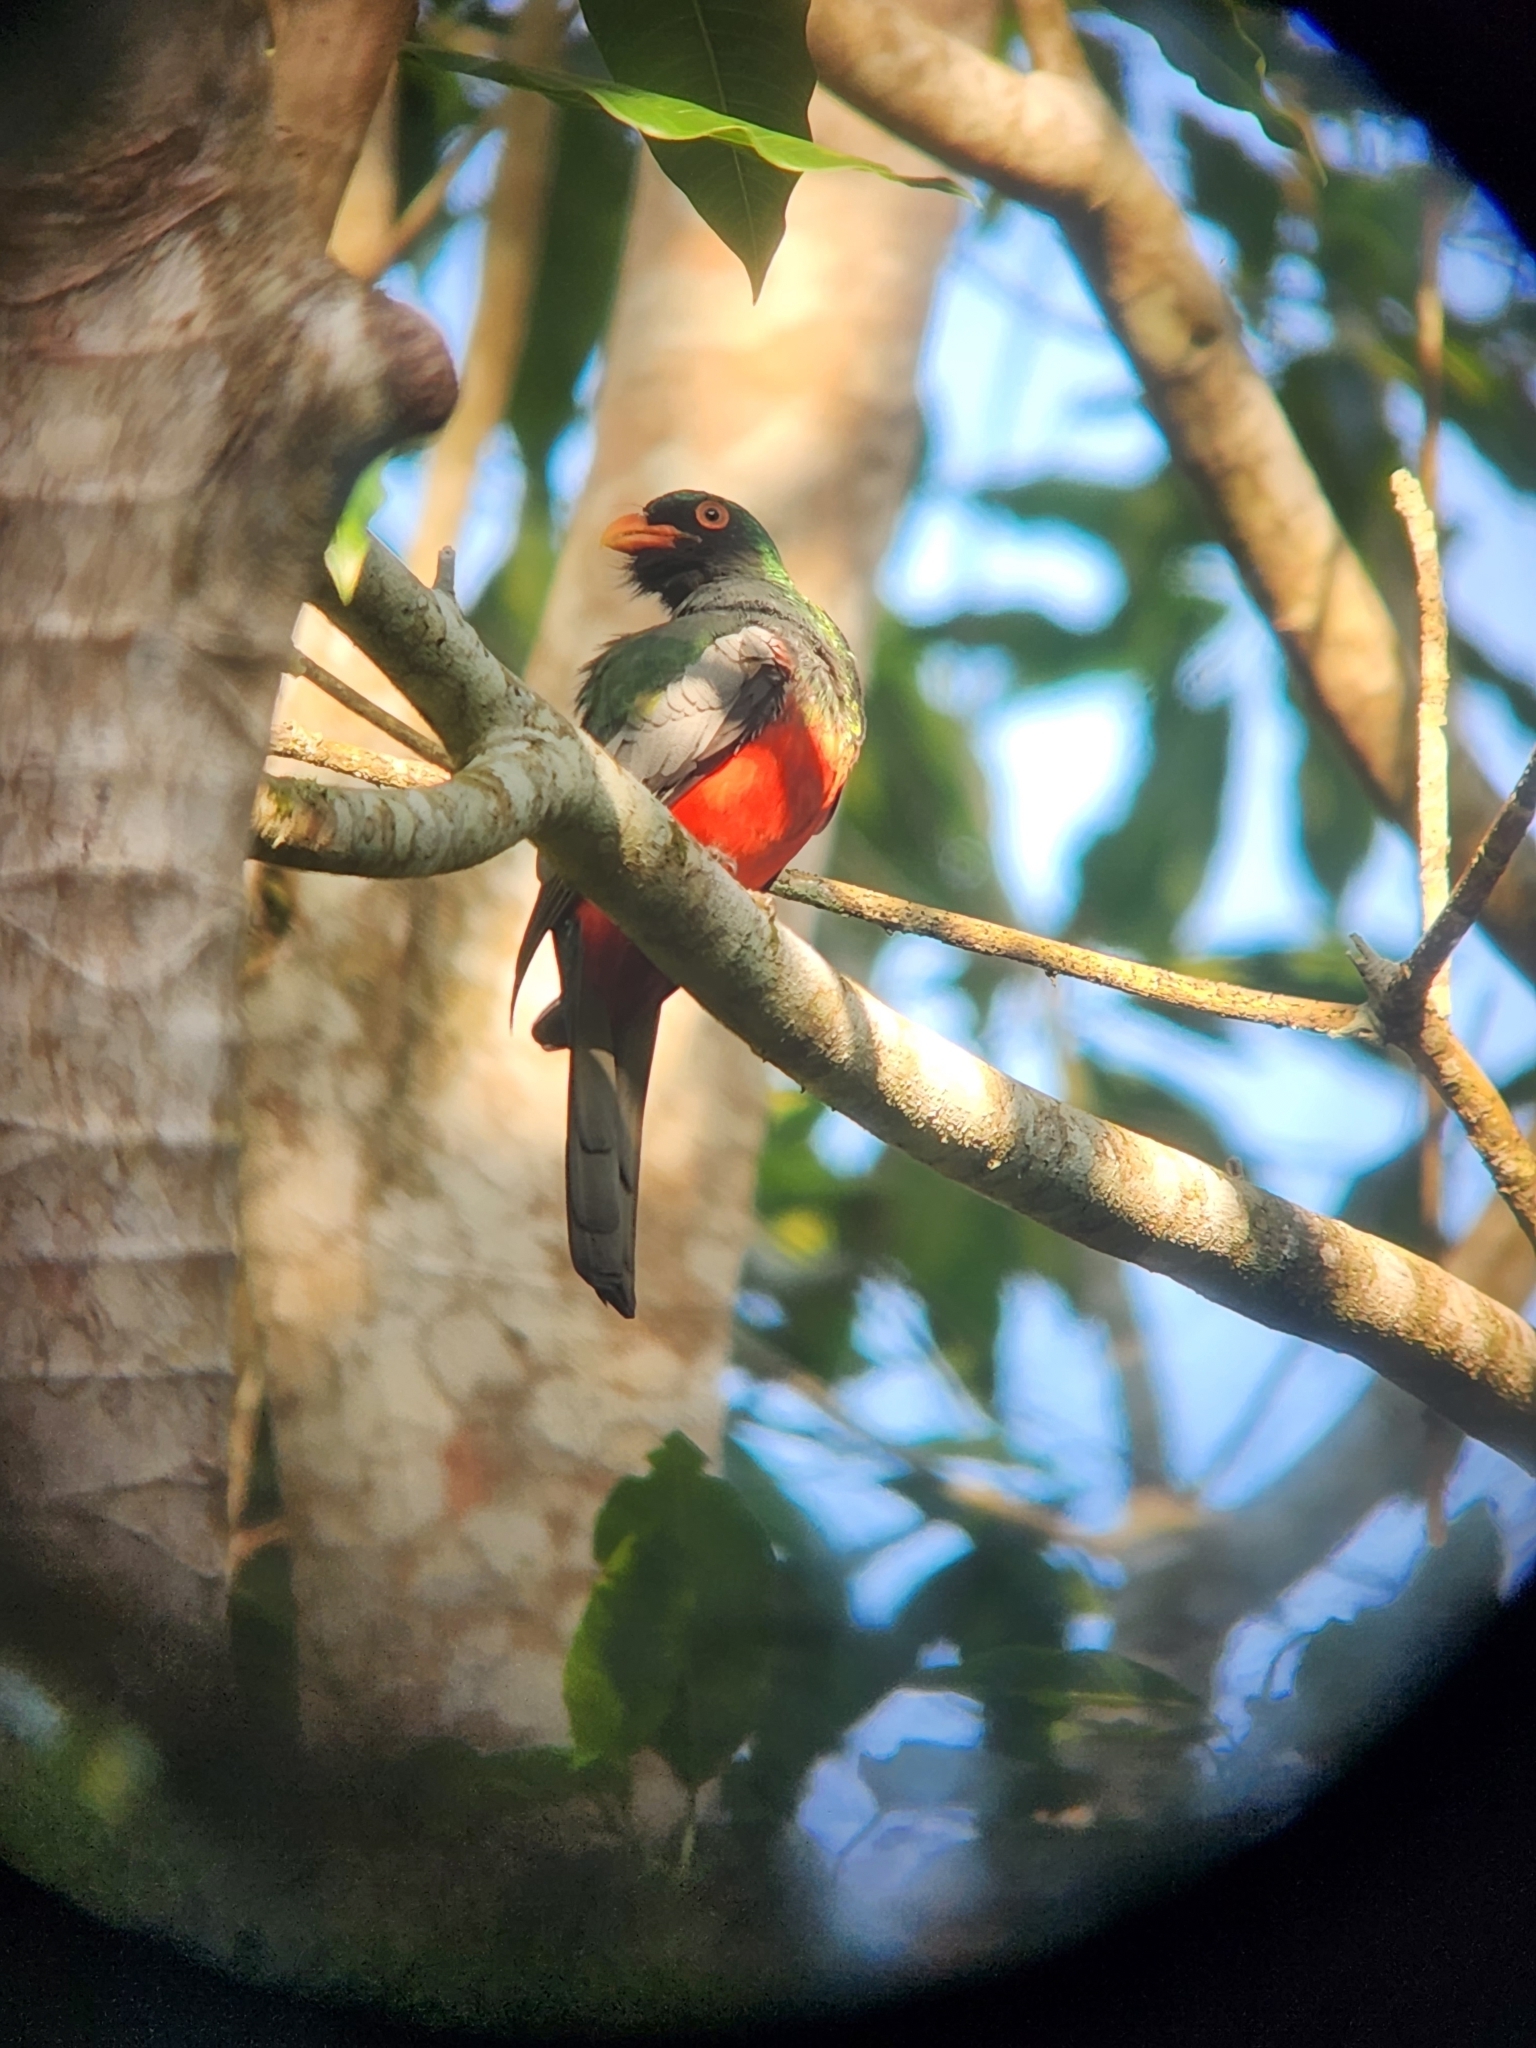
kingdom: Animalia
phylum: Chordata
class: Aves
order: Trogoniformes
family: Trogonidae
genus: Trogon
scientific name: Trogon massena
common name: Slaty-tailed trogon
